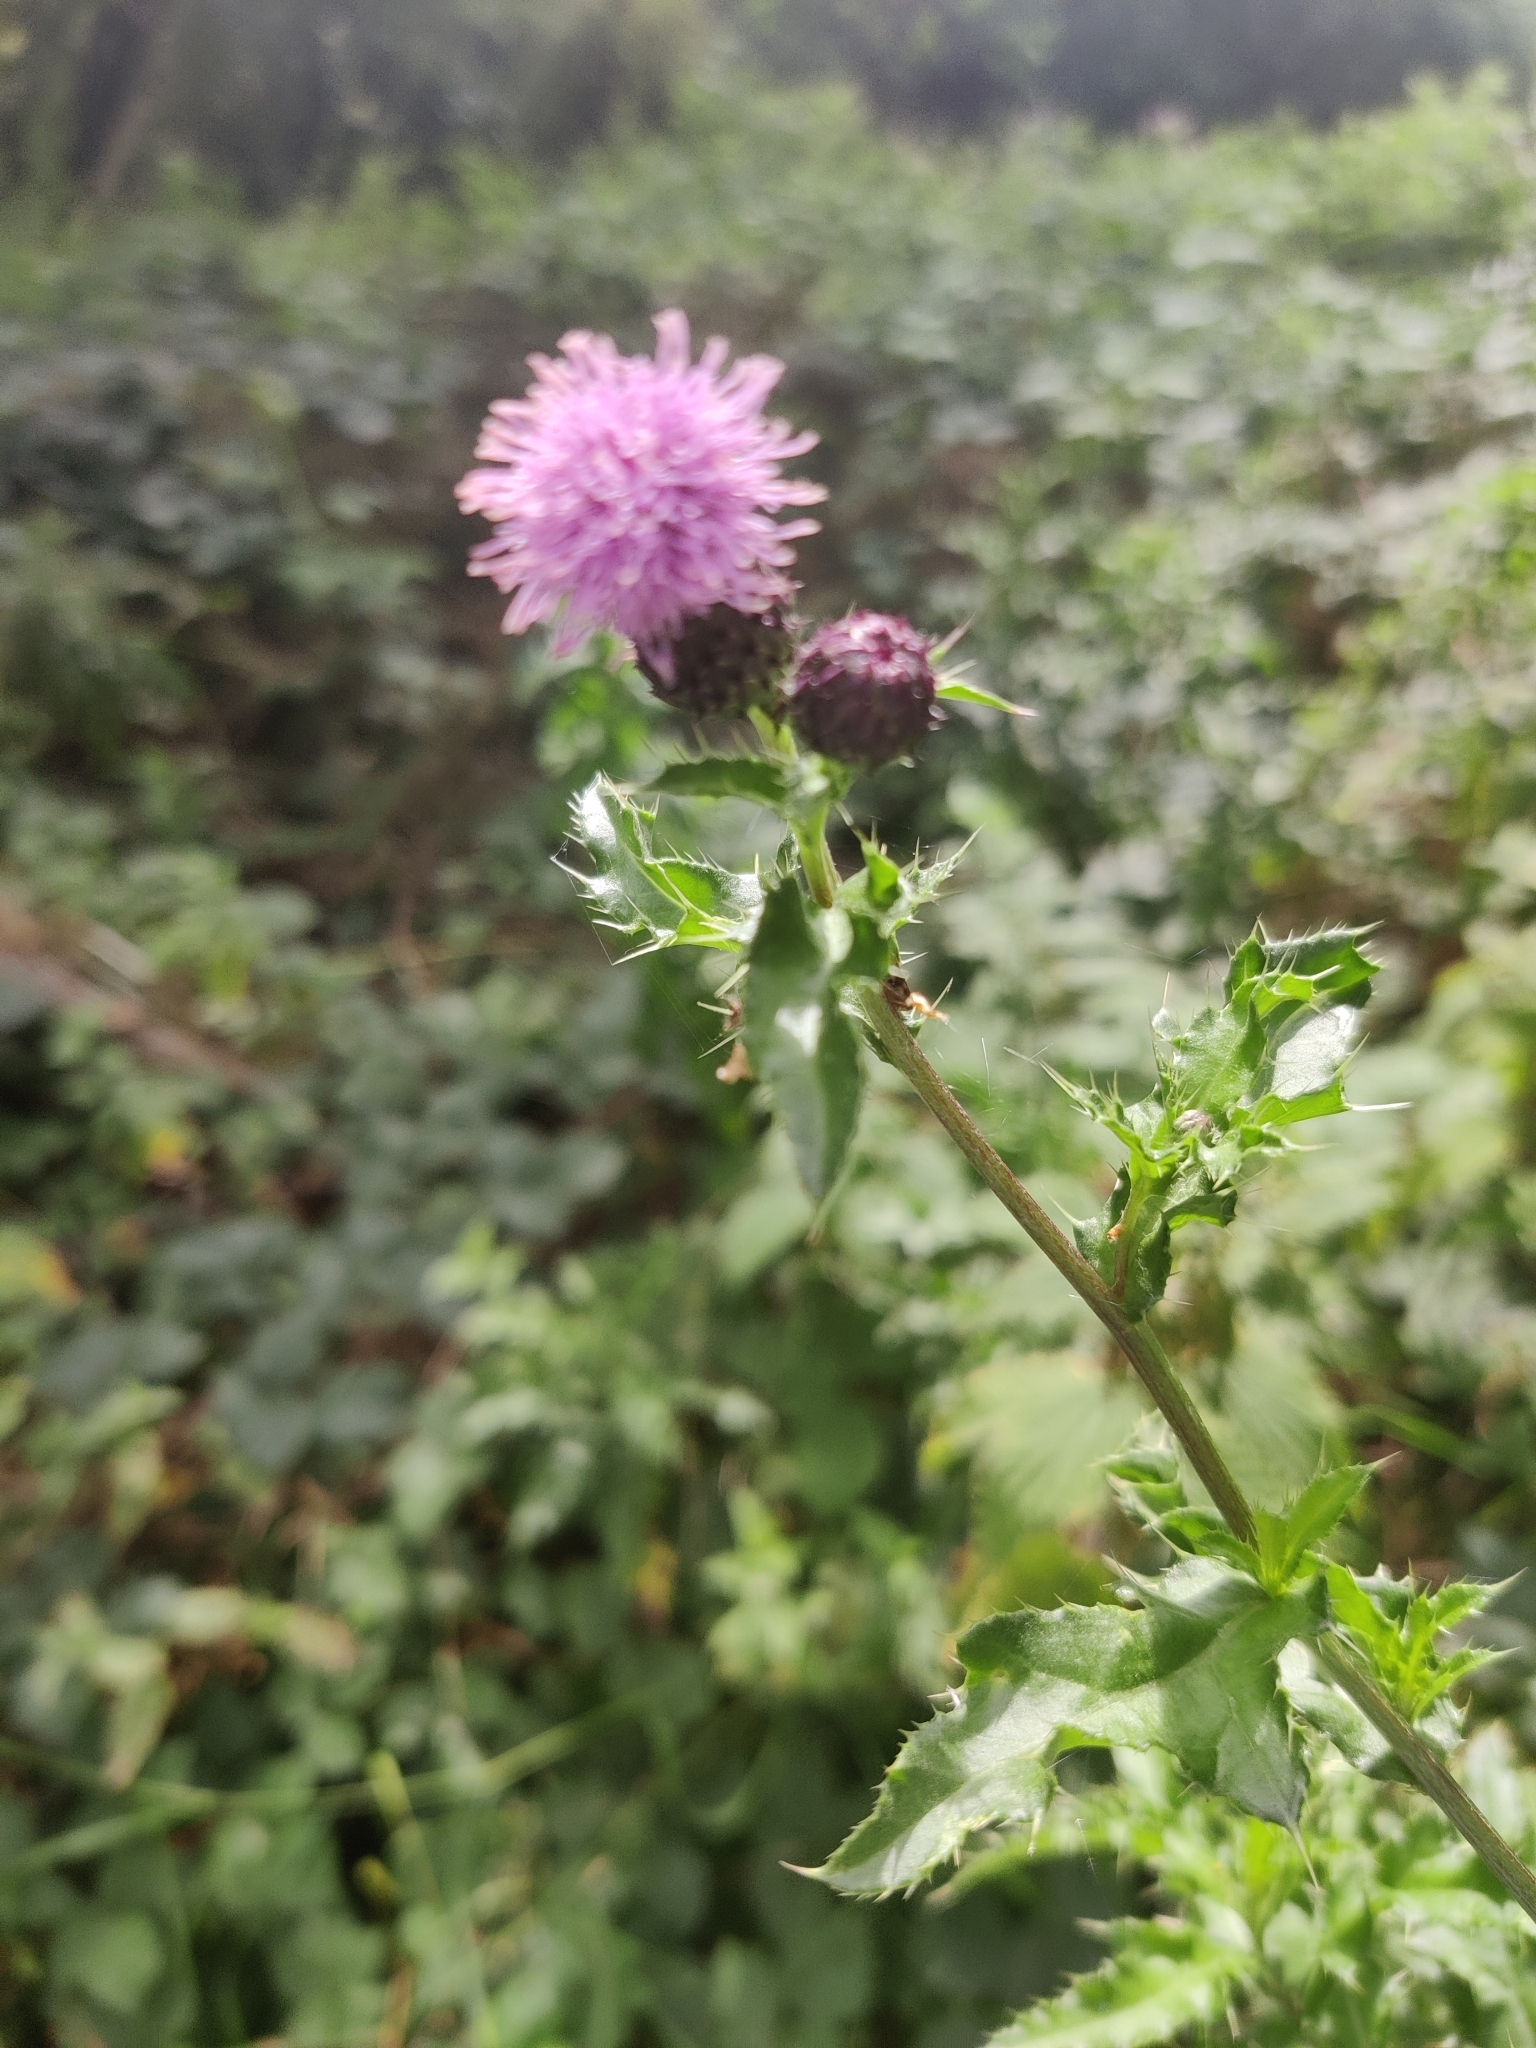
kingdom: Plantae
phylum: Tracheophyta
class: Magnoliopsida
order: Asterales
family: Asteraceae
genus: Cirsium
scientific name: Cirsium arvense
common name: Creeping thistle
